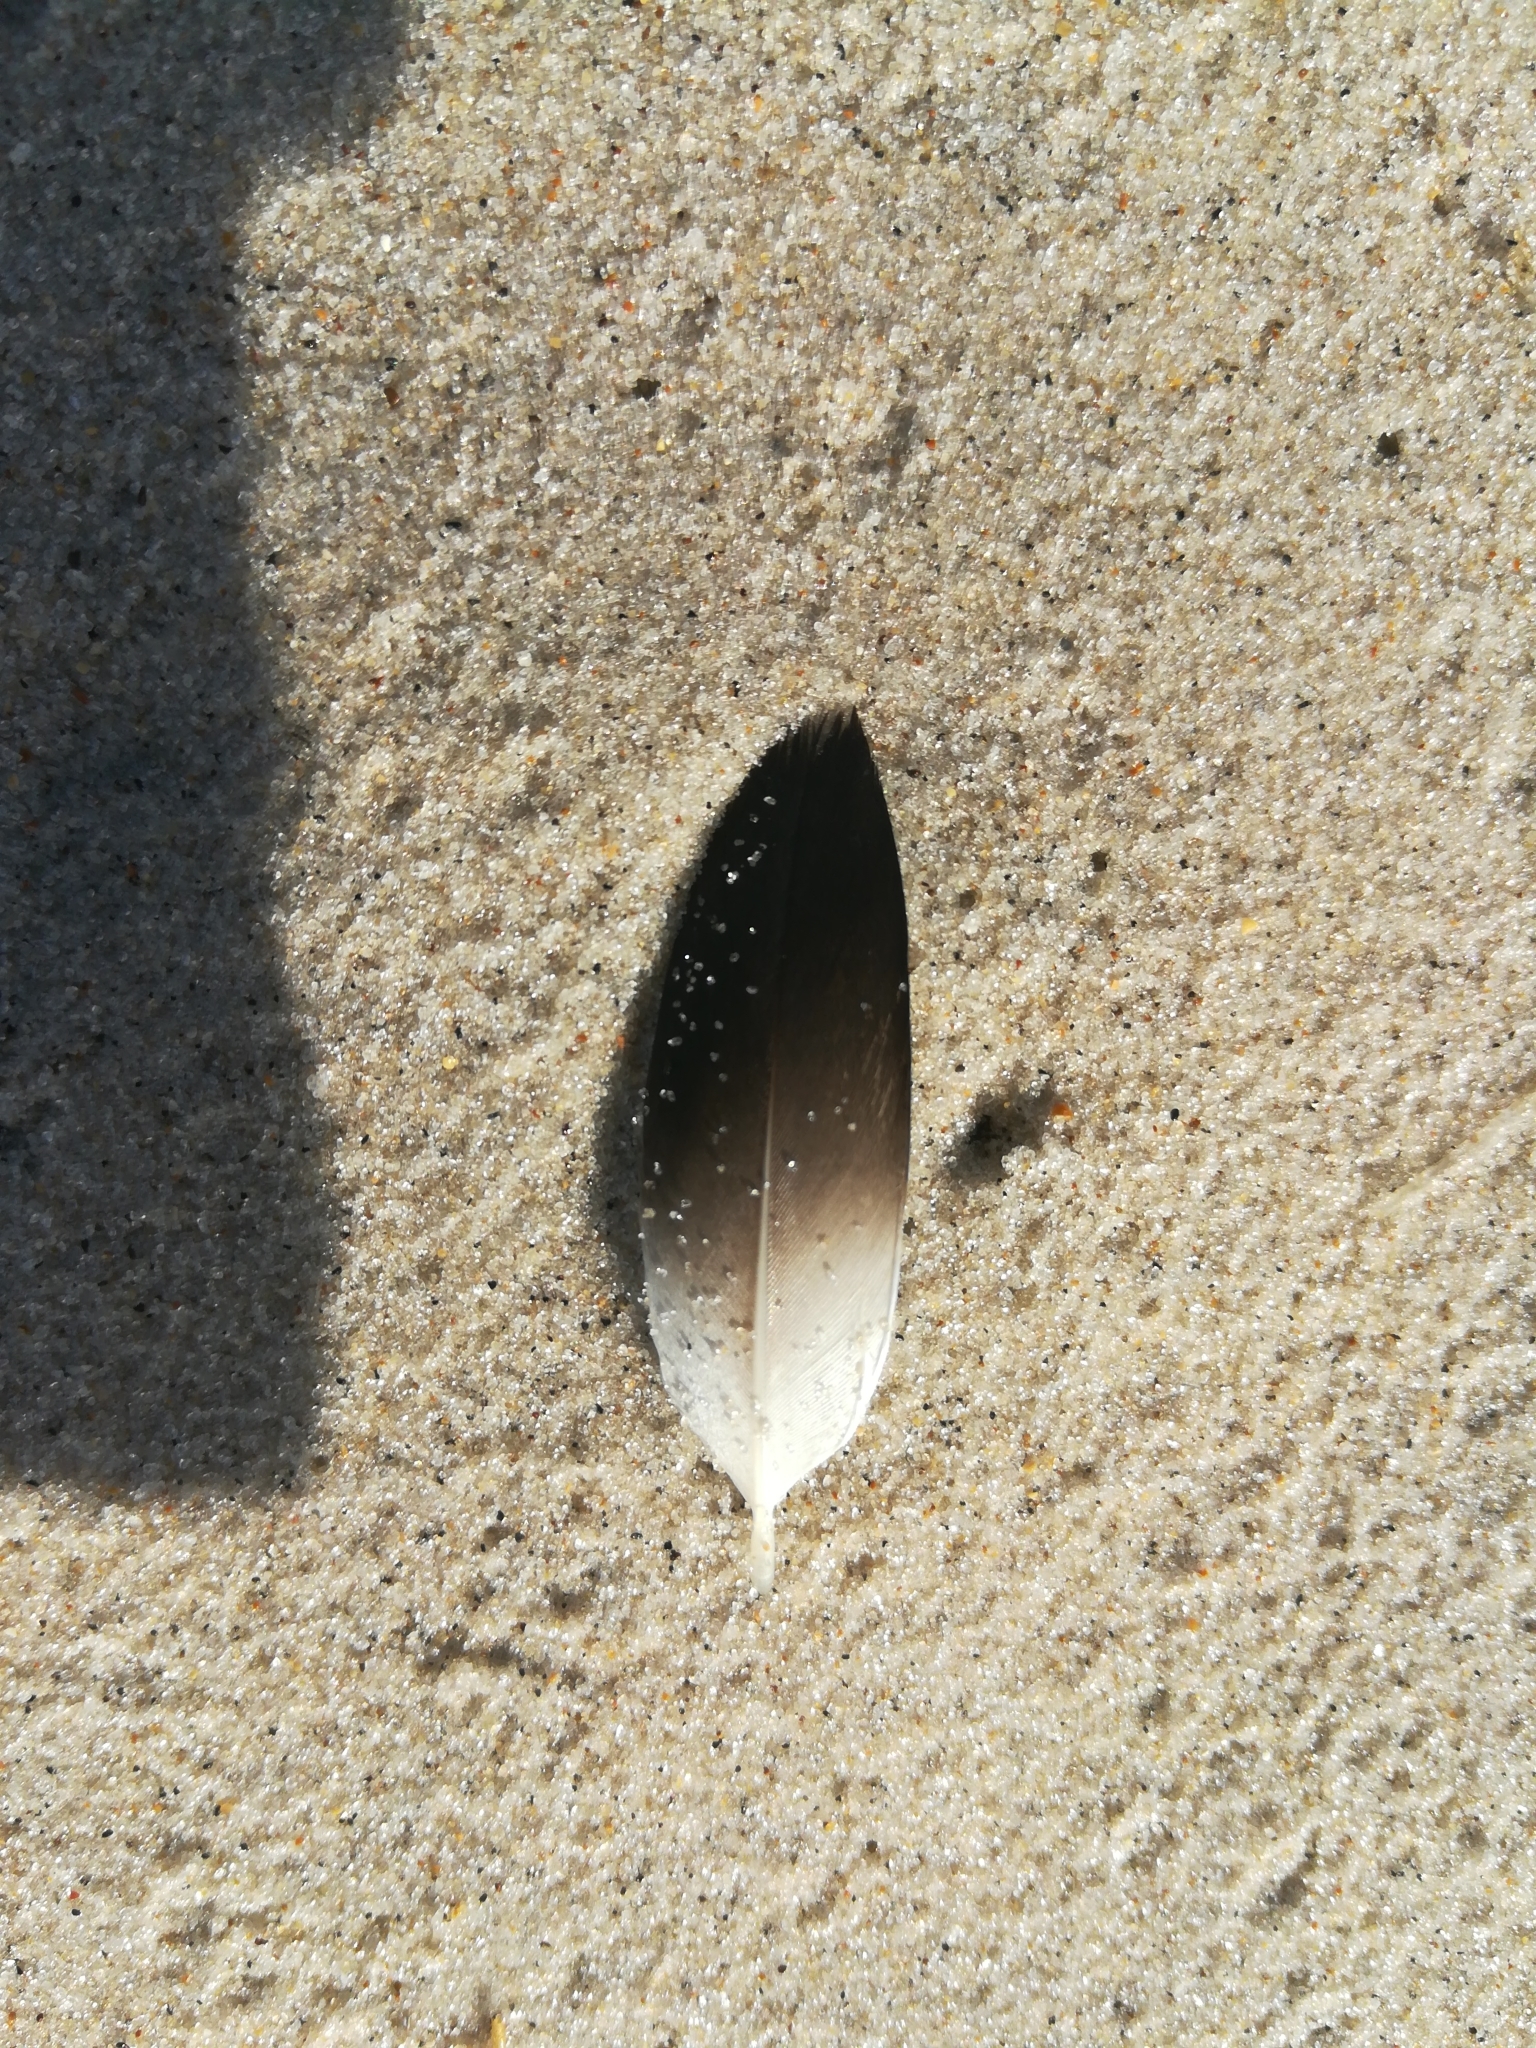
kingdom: Animalia
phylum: Chordata
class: Aves
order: Suliformes
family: Sulidae
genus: Morus
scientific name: Morus bassanus
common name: Northern gannet
